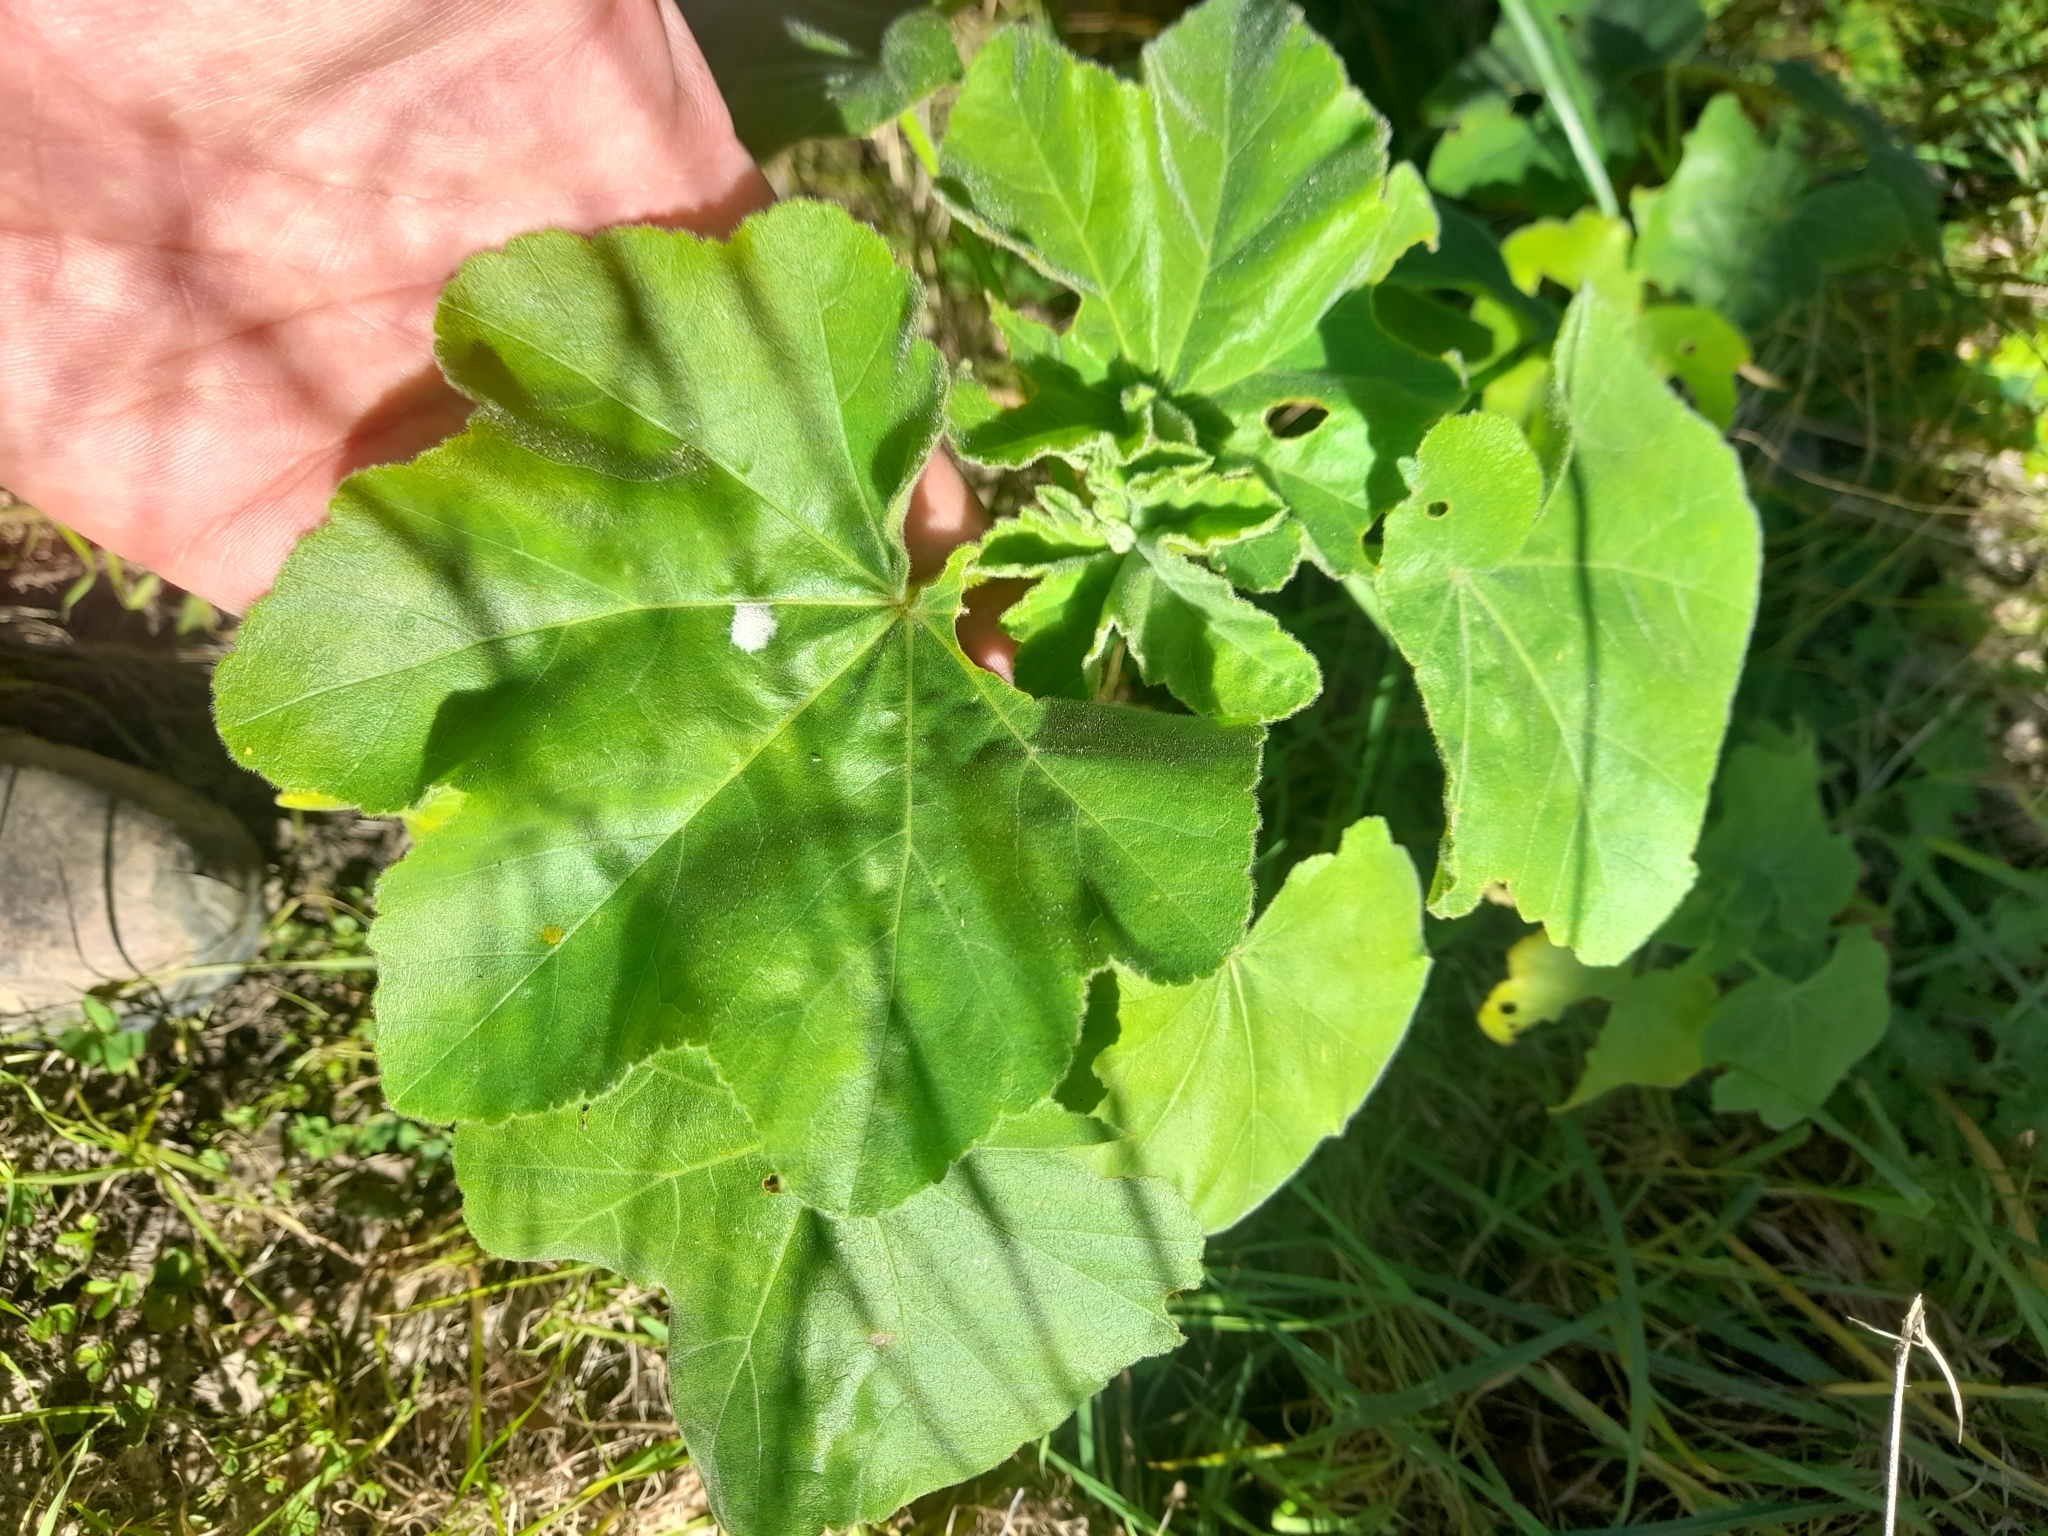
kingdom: Plantae
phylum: Tracheophyta
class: Magnoliopsida
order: Malvales
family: Malvaceae
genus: Malva
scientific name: Malva arborea
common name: Tree mallow
